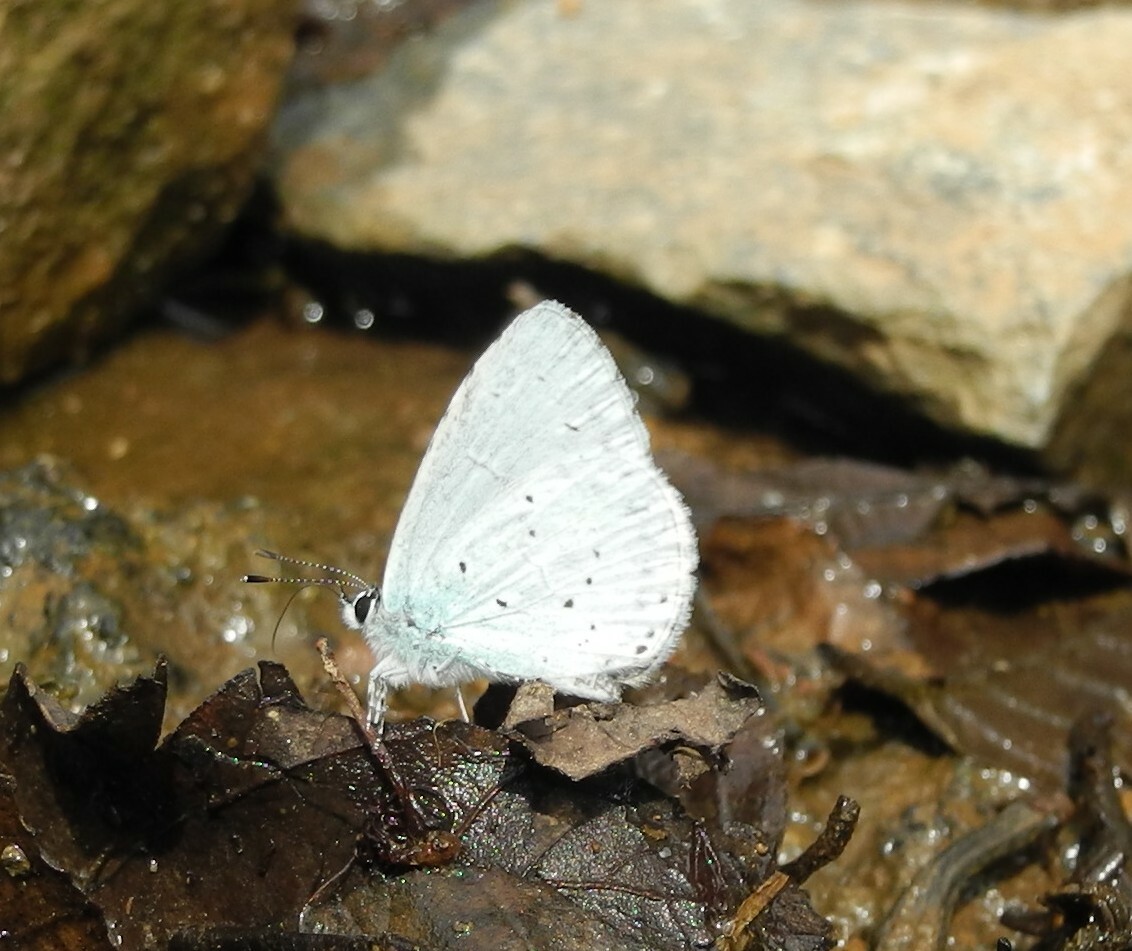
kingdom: Animalia
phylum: Arthropoda
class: Insecta
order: Lepidoptera
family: Lycaenidae
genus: Celastrina
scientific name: Celastrina argiolus
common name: Holly blue
